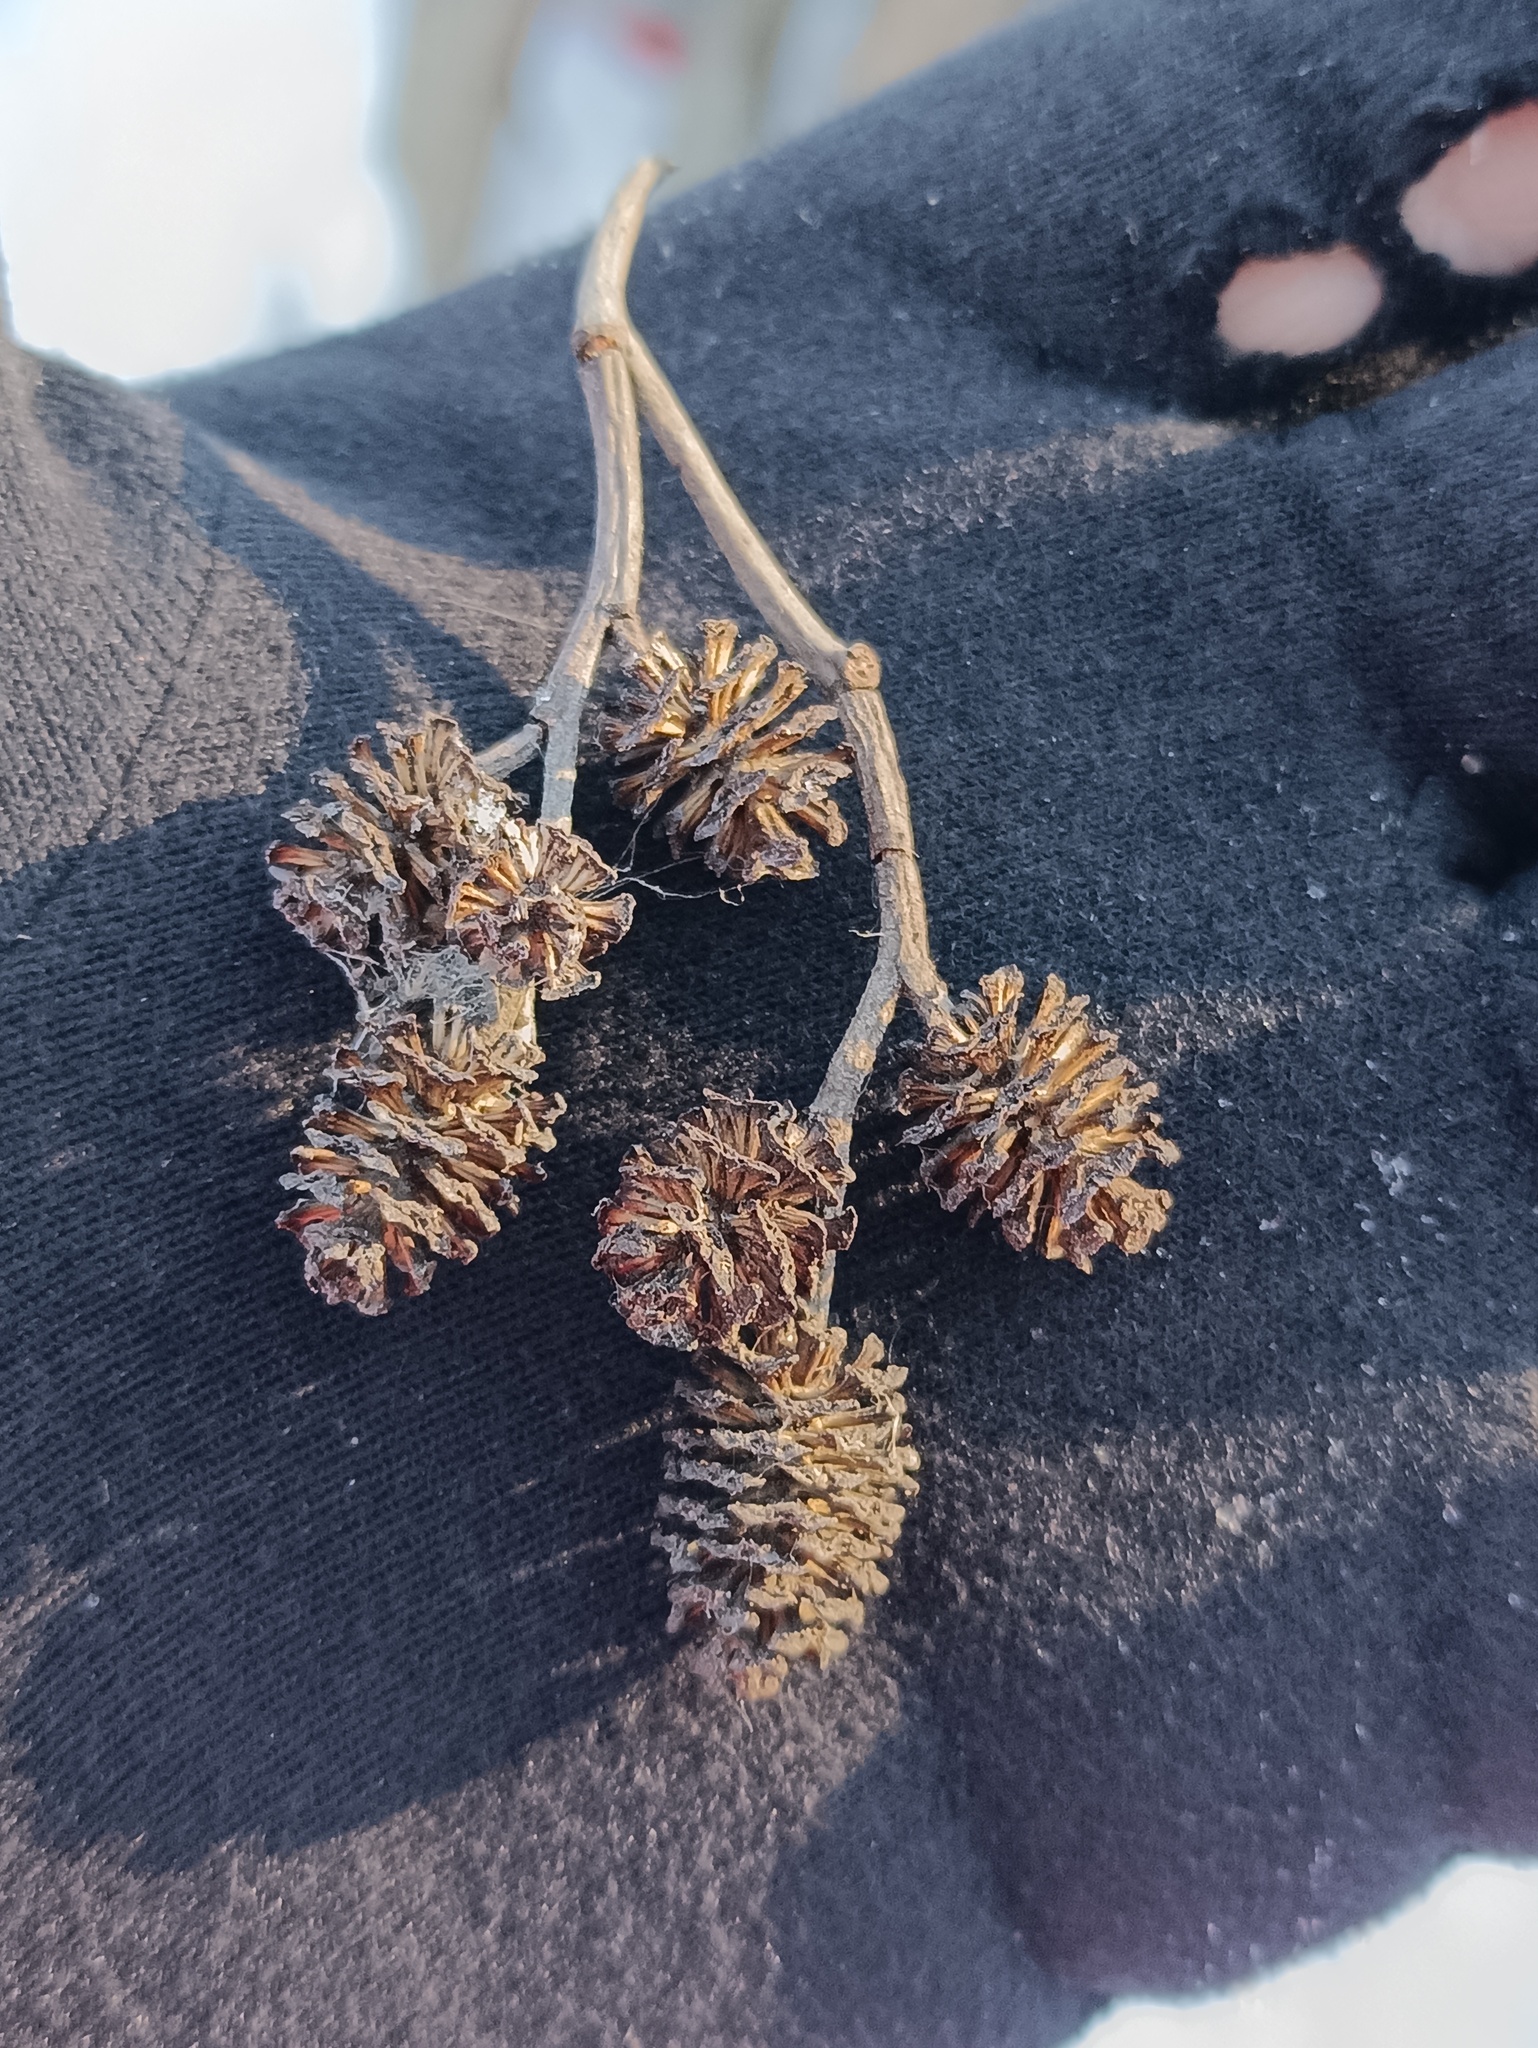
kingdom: Plantae
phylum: Tracheophyta
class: Magnoliopsida
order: Fagales
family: Betulaceae
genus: Alnus
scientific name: Alnus incana
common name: Grey alder
